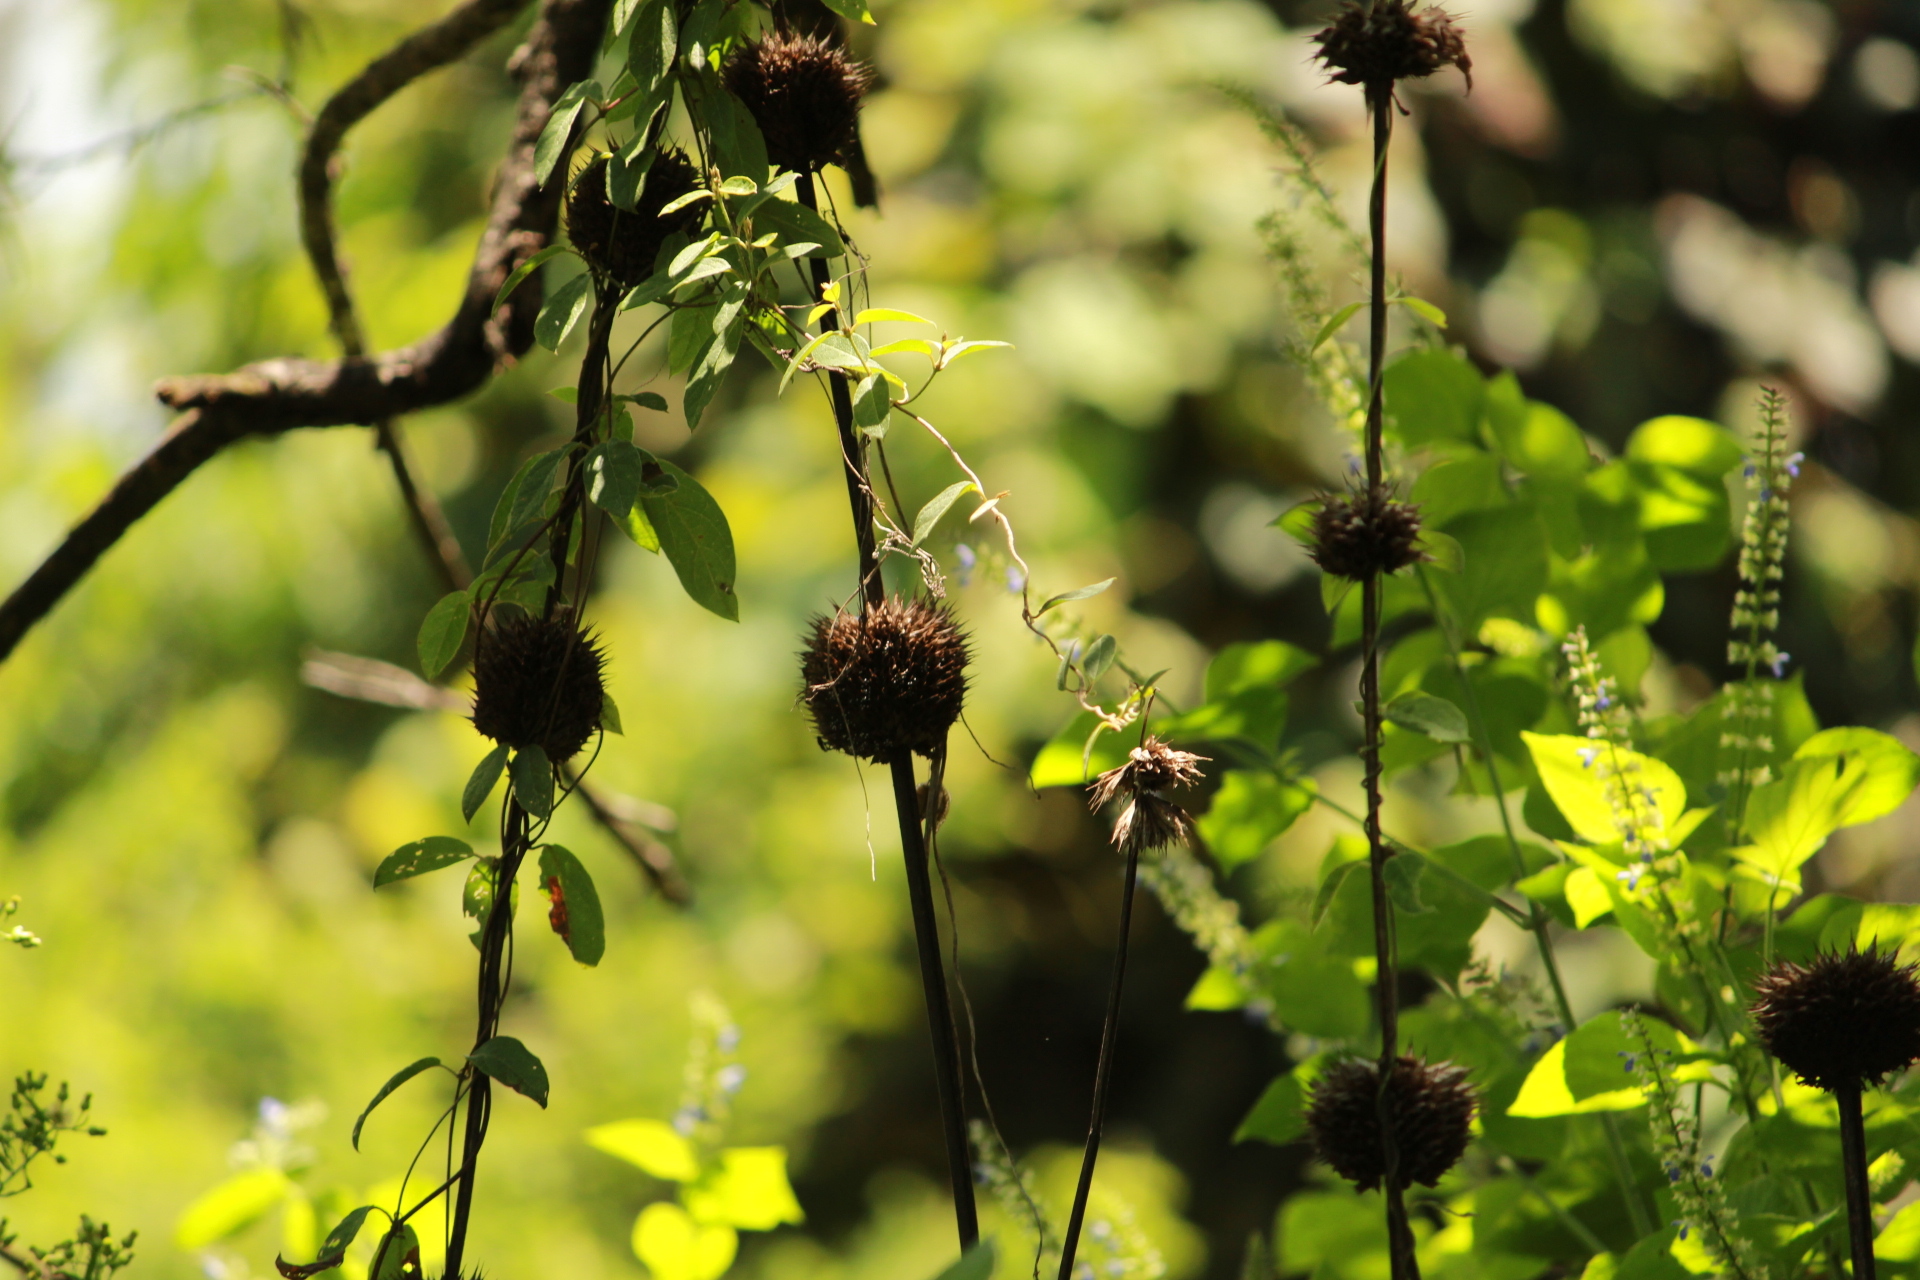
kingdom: Plantae
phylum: Tracheophyta
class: Magnoliopsida
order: Lamiales
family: Lamiaceae
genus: Leonotis
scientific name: Leonotis nepetifolia
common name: Christmas candlestick
